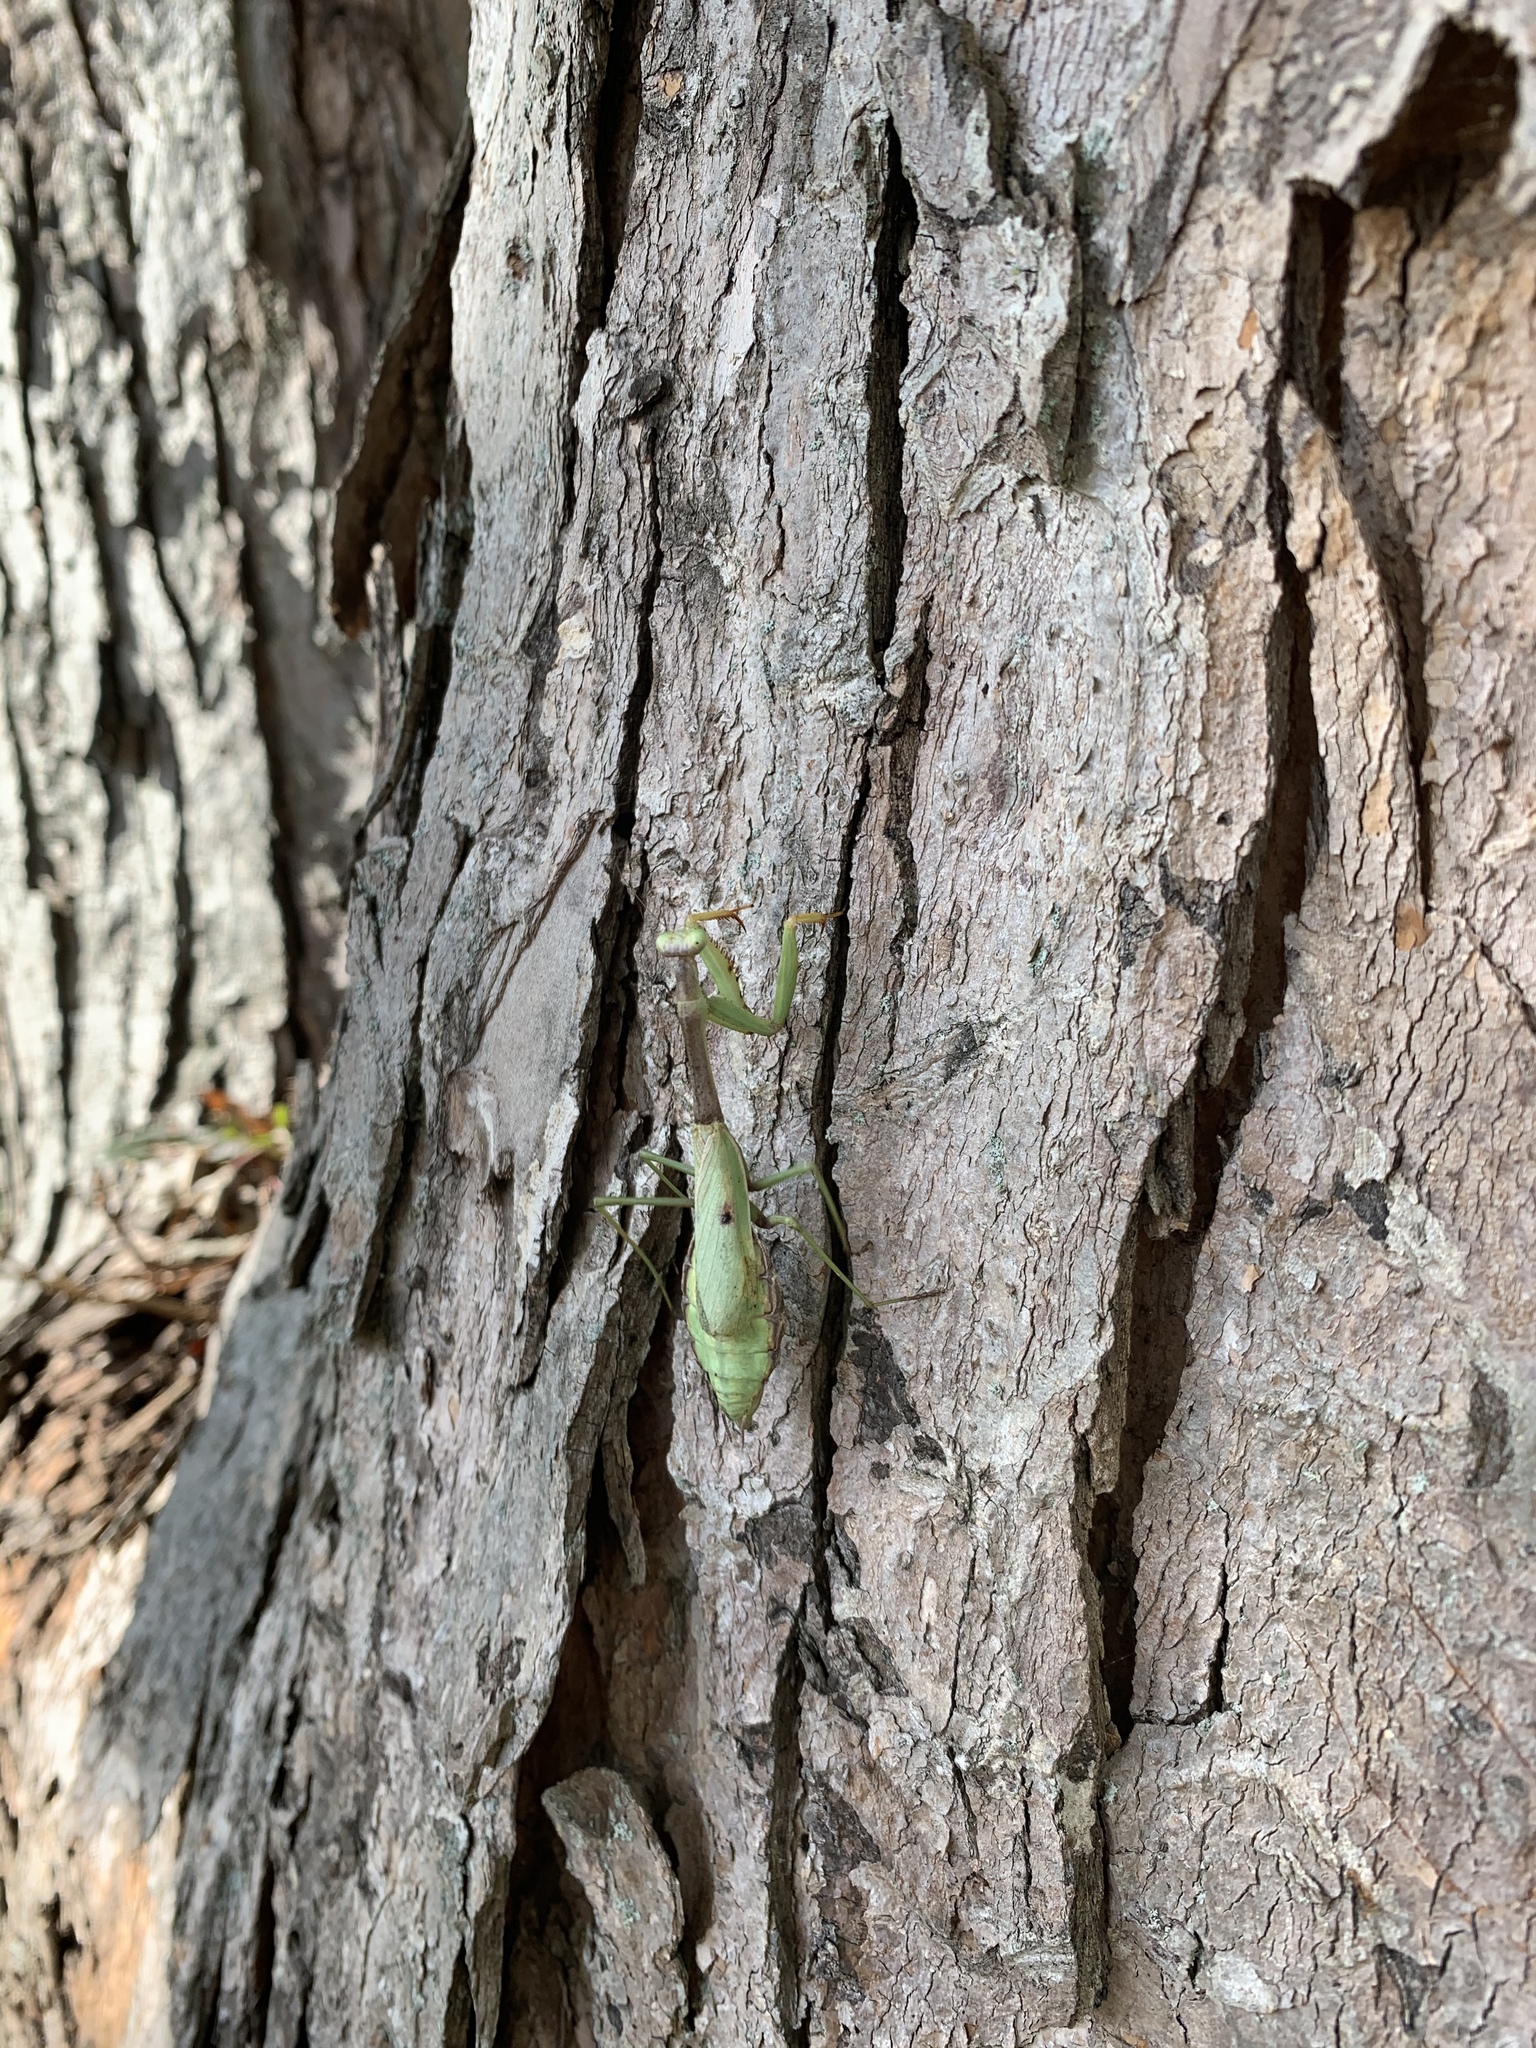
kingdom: Animalia
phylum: Arthropoda
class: Insecta
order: Mantodea
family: Mantidae
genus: Stagmomantis
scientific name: Stagmomantis carolina
